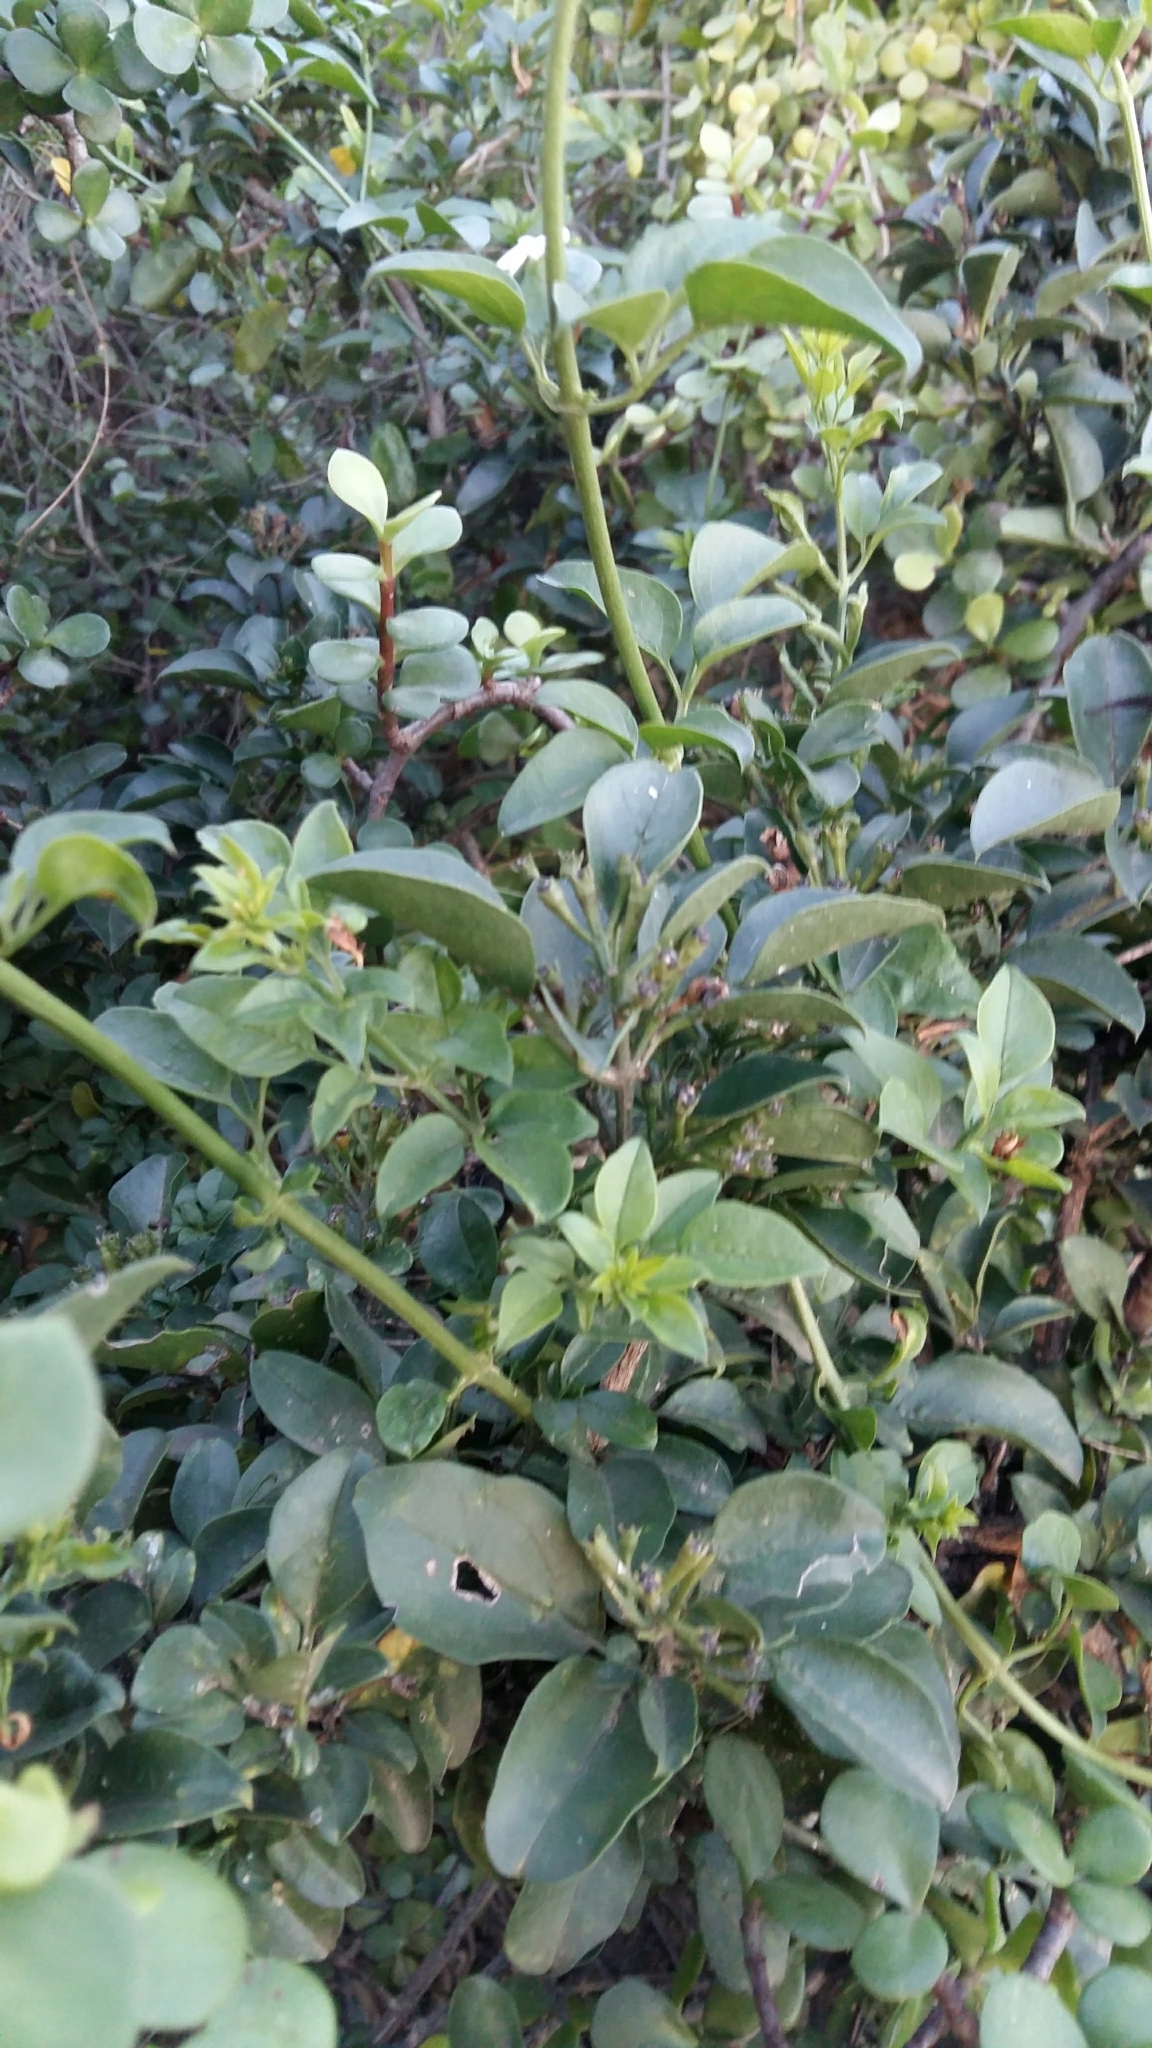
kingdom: Plantae
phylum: Tracheophyta
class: Magnoliopsida
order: Lamiales
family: Oleaceae
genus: Jasminum
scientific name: Jasminum angulare
